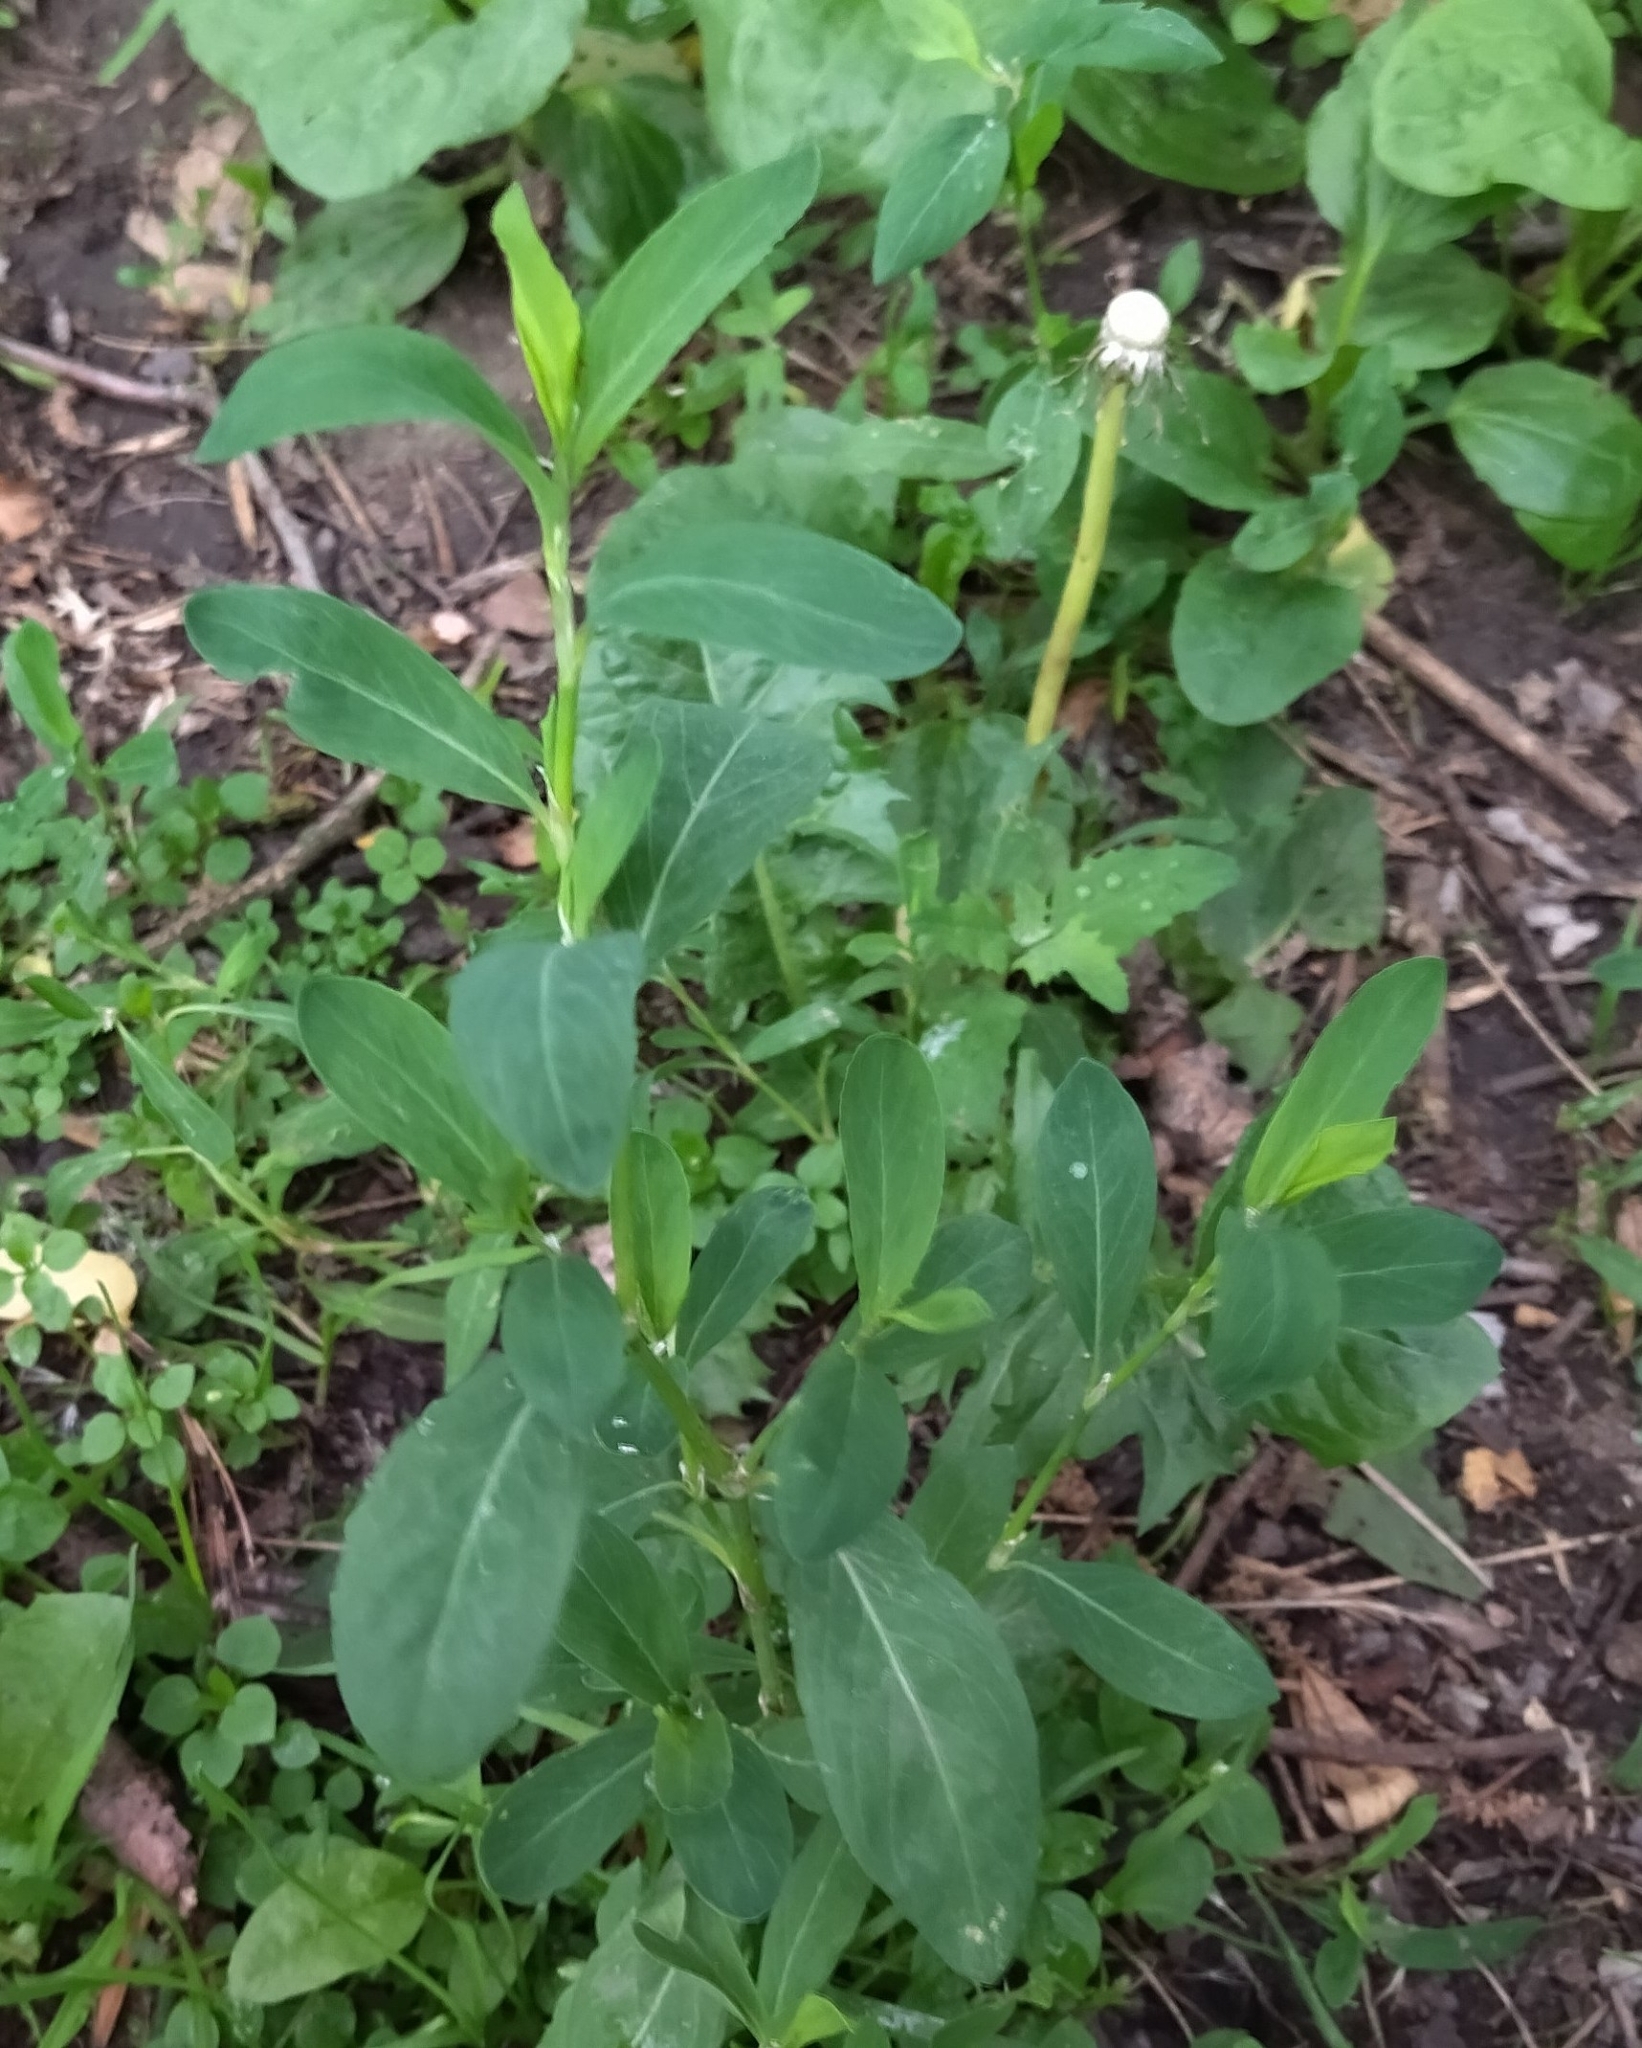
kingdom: Plantae
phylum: Tracheophyta
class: Magnoliopsida
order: Caryophyllales
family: Polygonaceae
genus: Polygonum
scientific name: Polygonum
